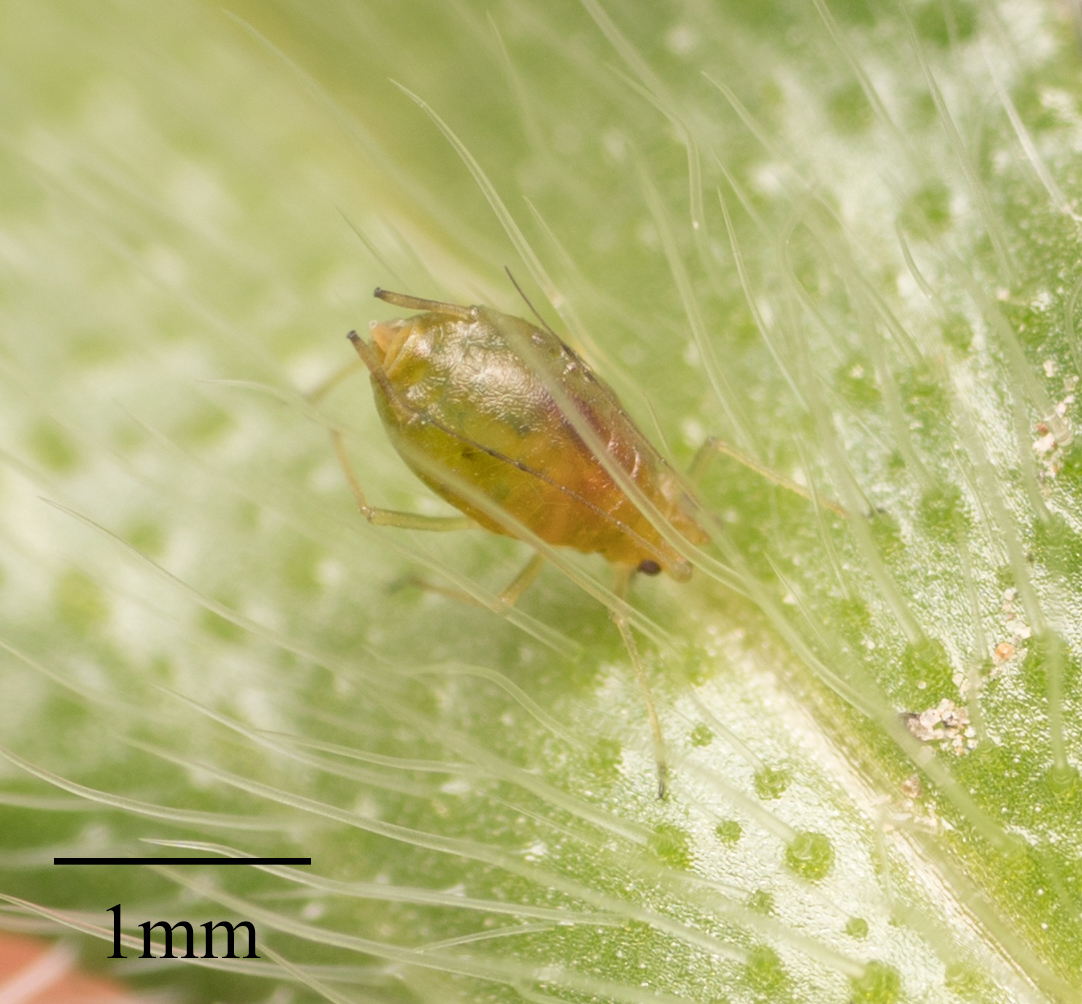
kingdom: Animalia
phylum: Arthropoda
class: Insecta
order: Hemiptera
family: Aphididae
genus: Myzus
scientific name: Myzus persicae
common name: Green peach aphid
